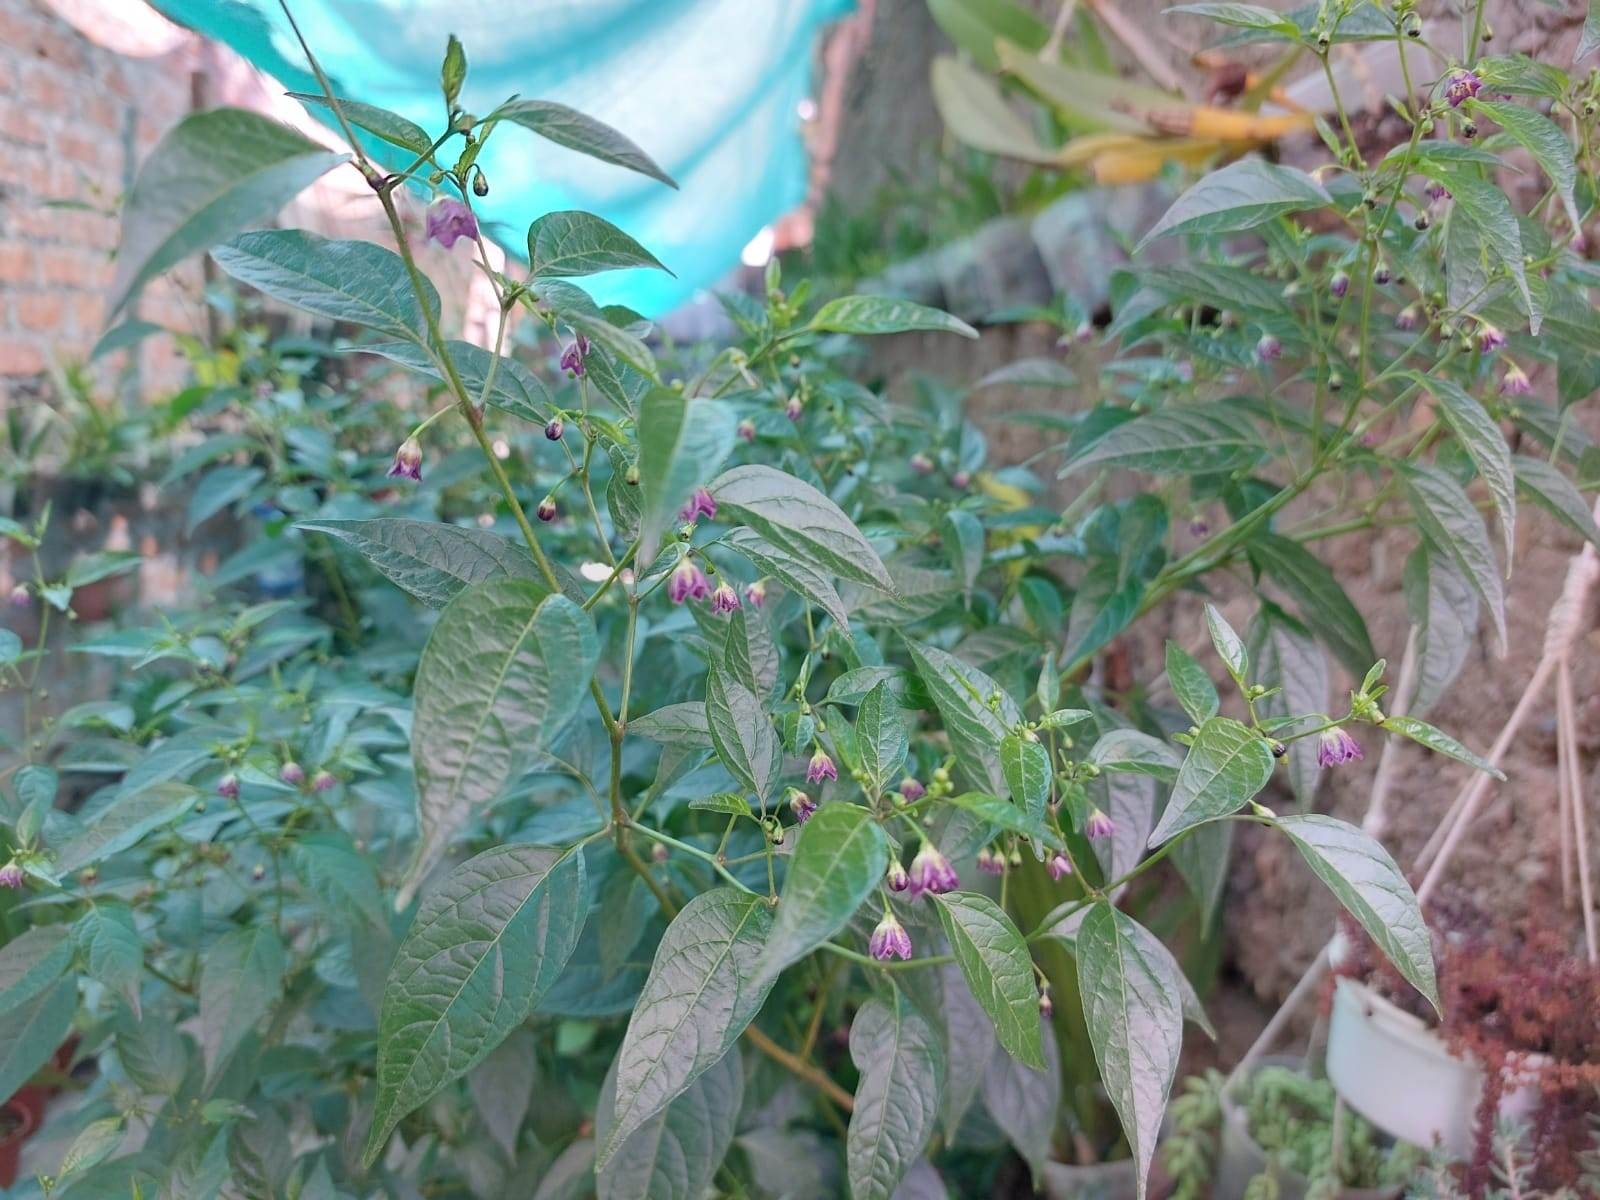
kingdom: Plantae
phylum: Tracheophyta
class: Magnoliopsida
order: Solanales
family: Solanaceae
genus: Capsicum
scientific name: Capsicum tovarii
